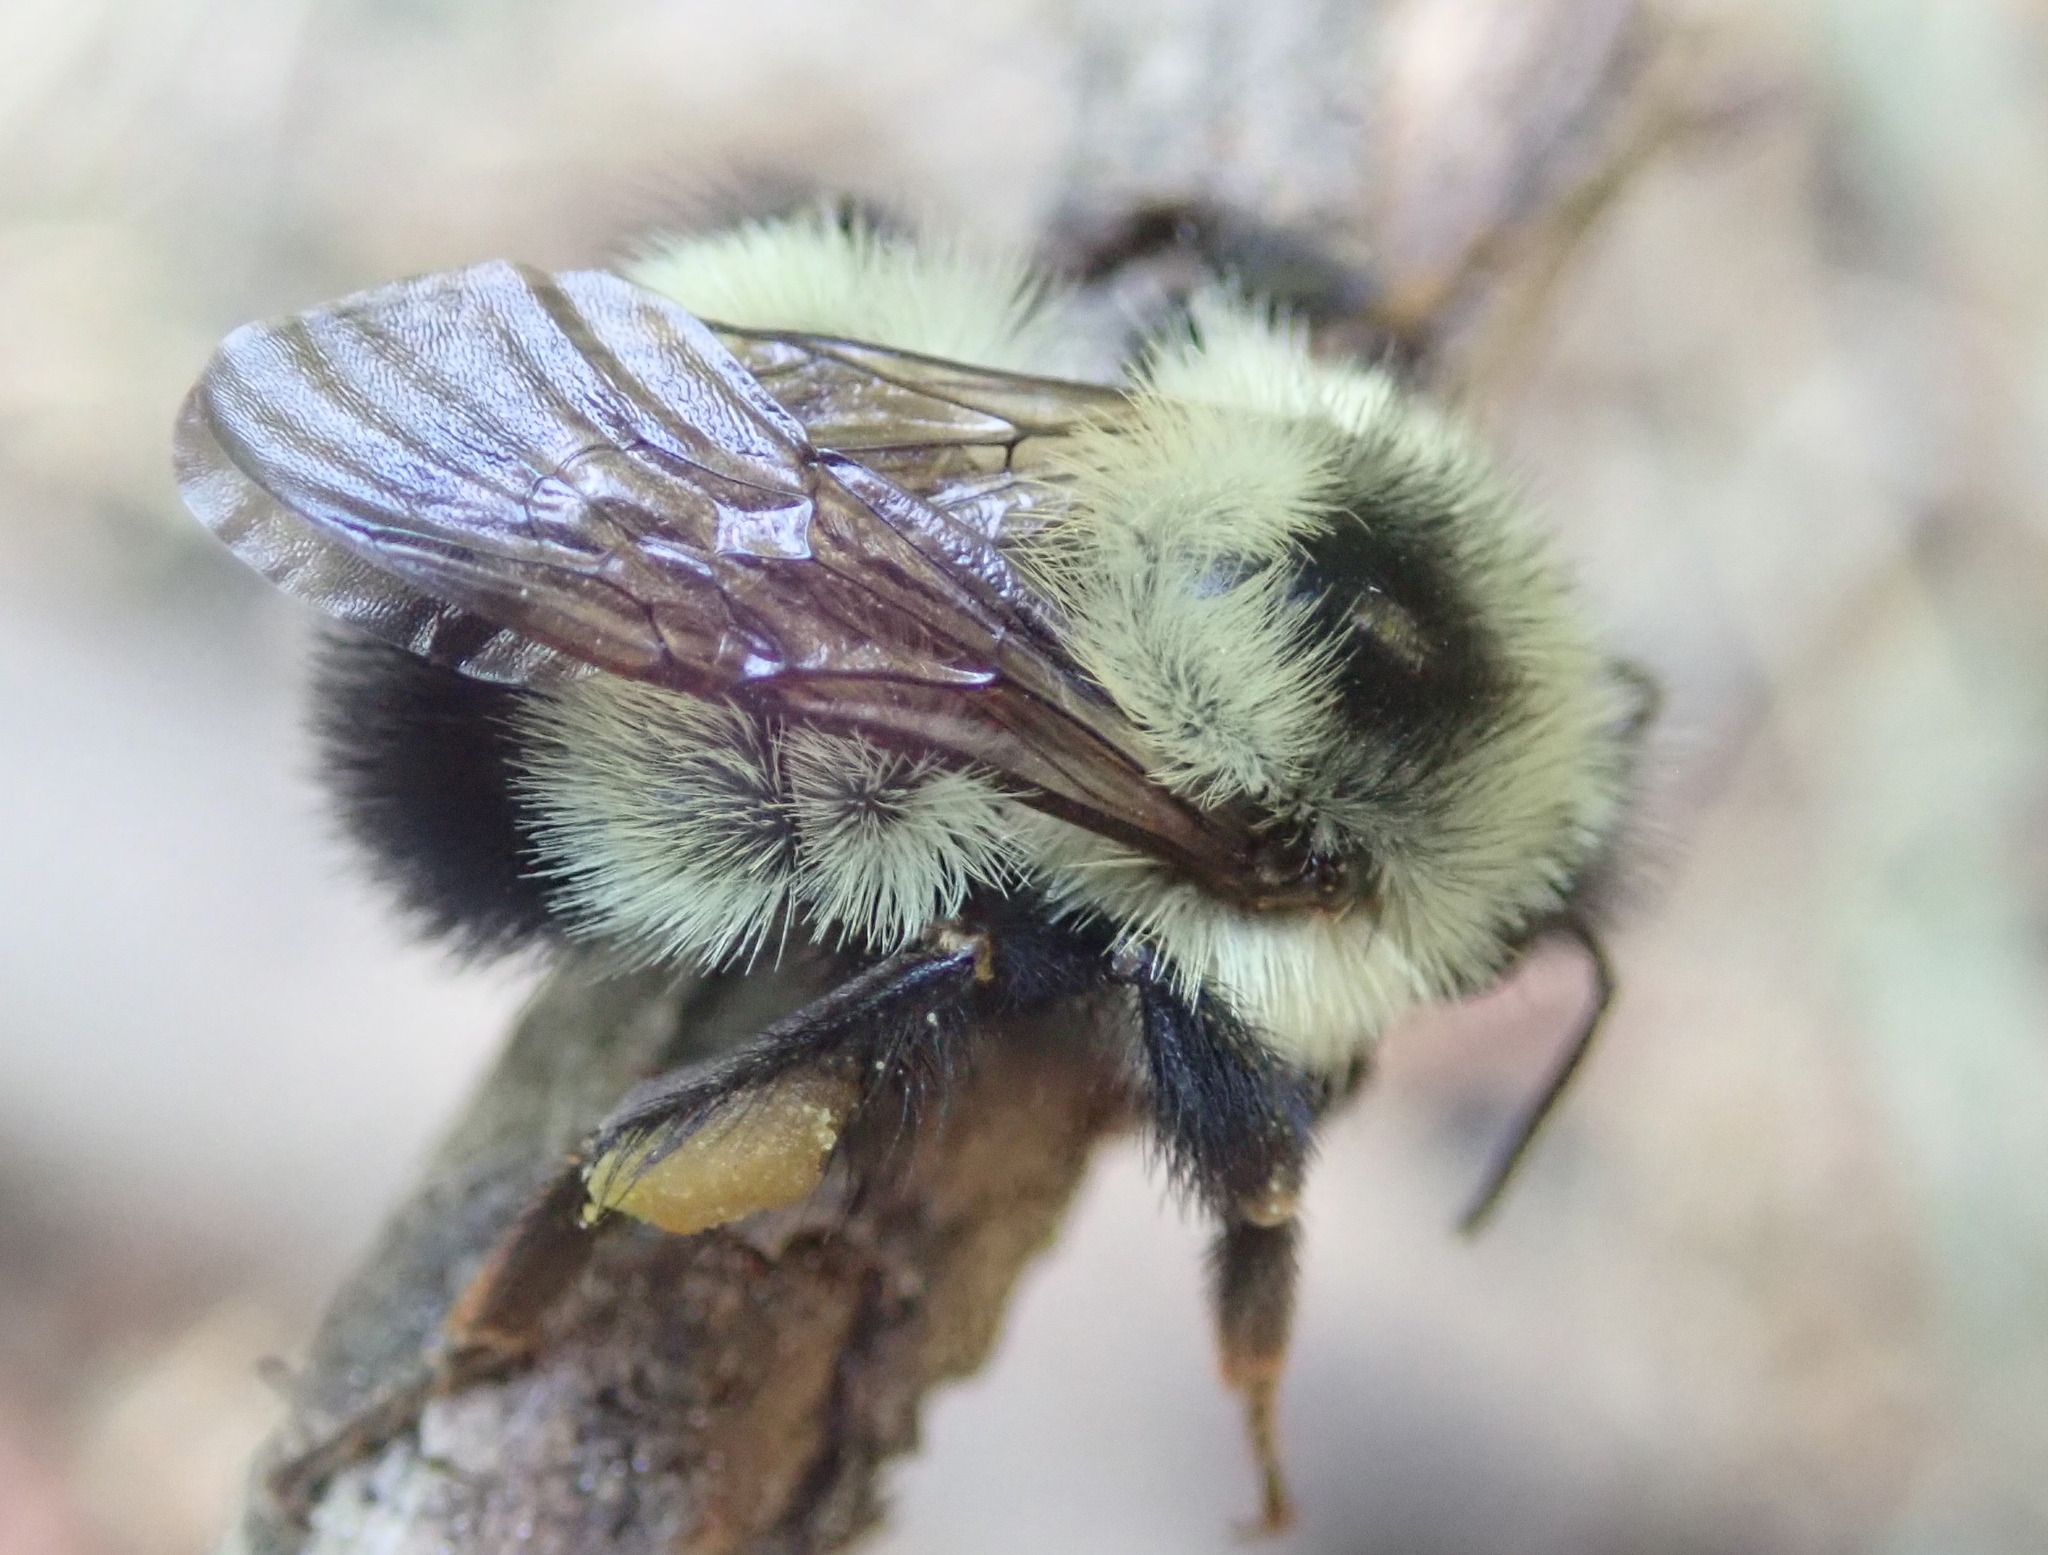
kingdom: Animalia
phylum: Arthropoda
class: Insecta
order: Hymenoptera
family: Apidae
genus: Bombus
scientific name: Bombus vagans
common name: Half-black bumble bee
